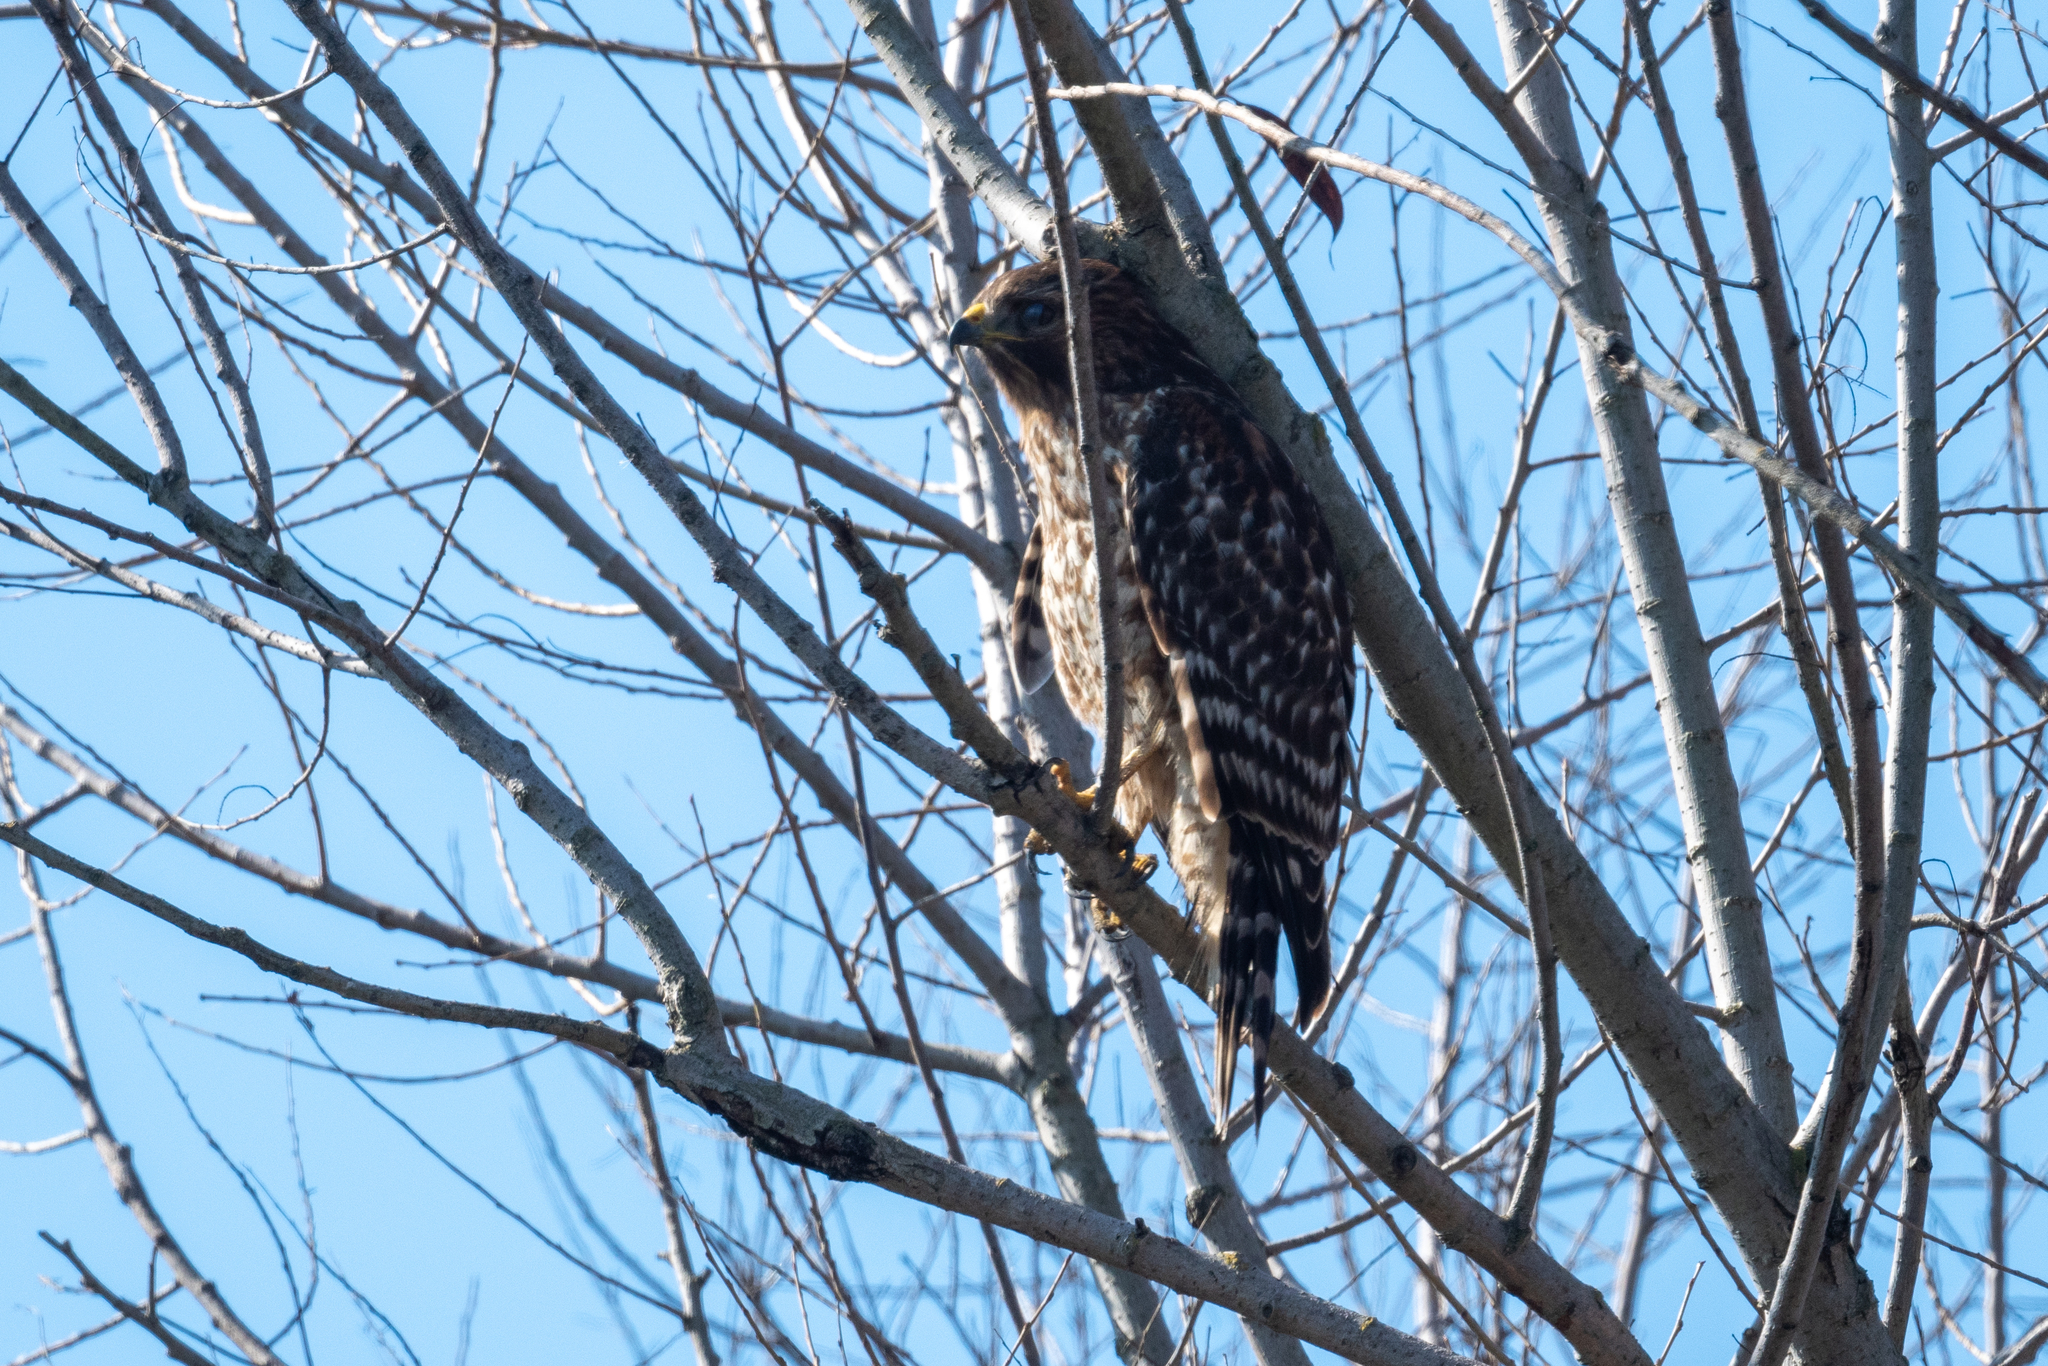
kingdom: Animalia
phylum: Chordata
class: Aves
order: Accipitriformes
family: Accipitridae
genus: Buteo
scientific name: Buteo lineatus
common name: Red-shouldered hawk
